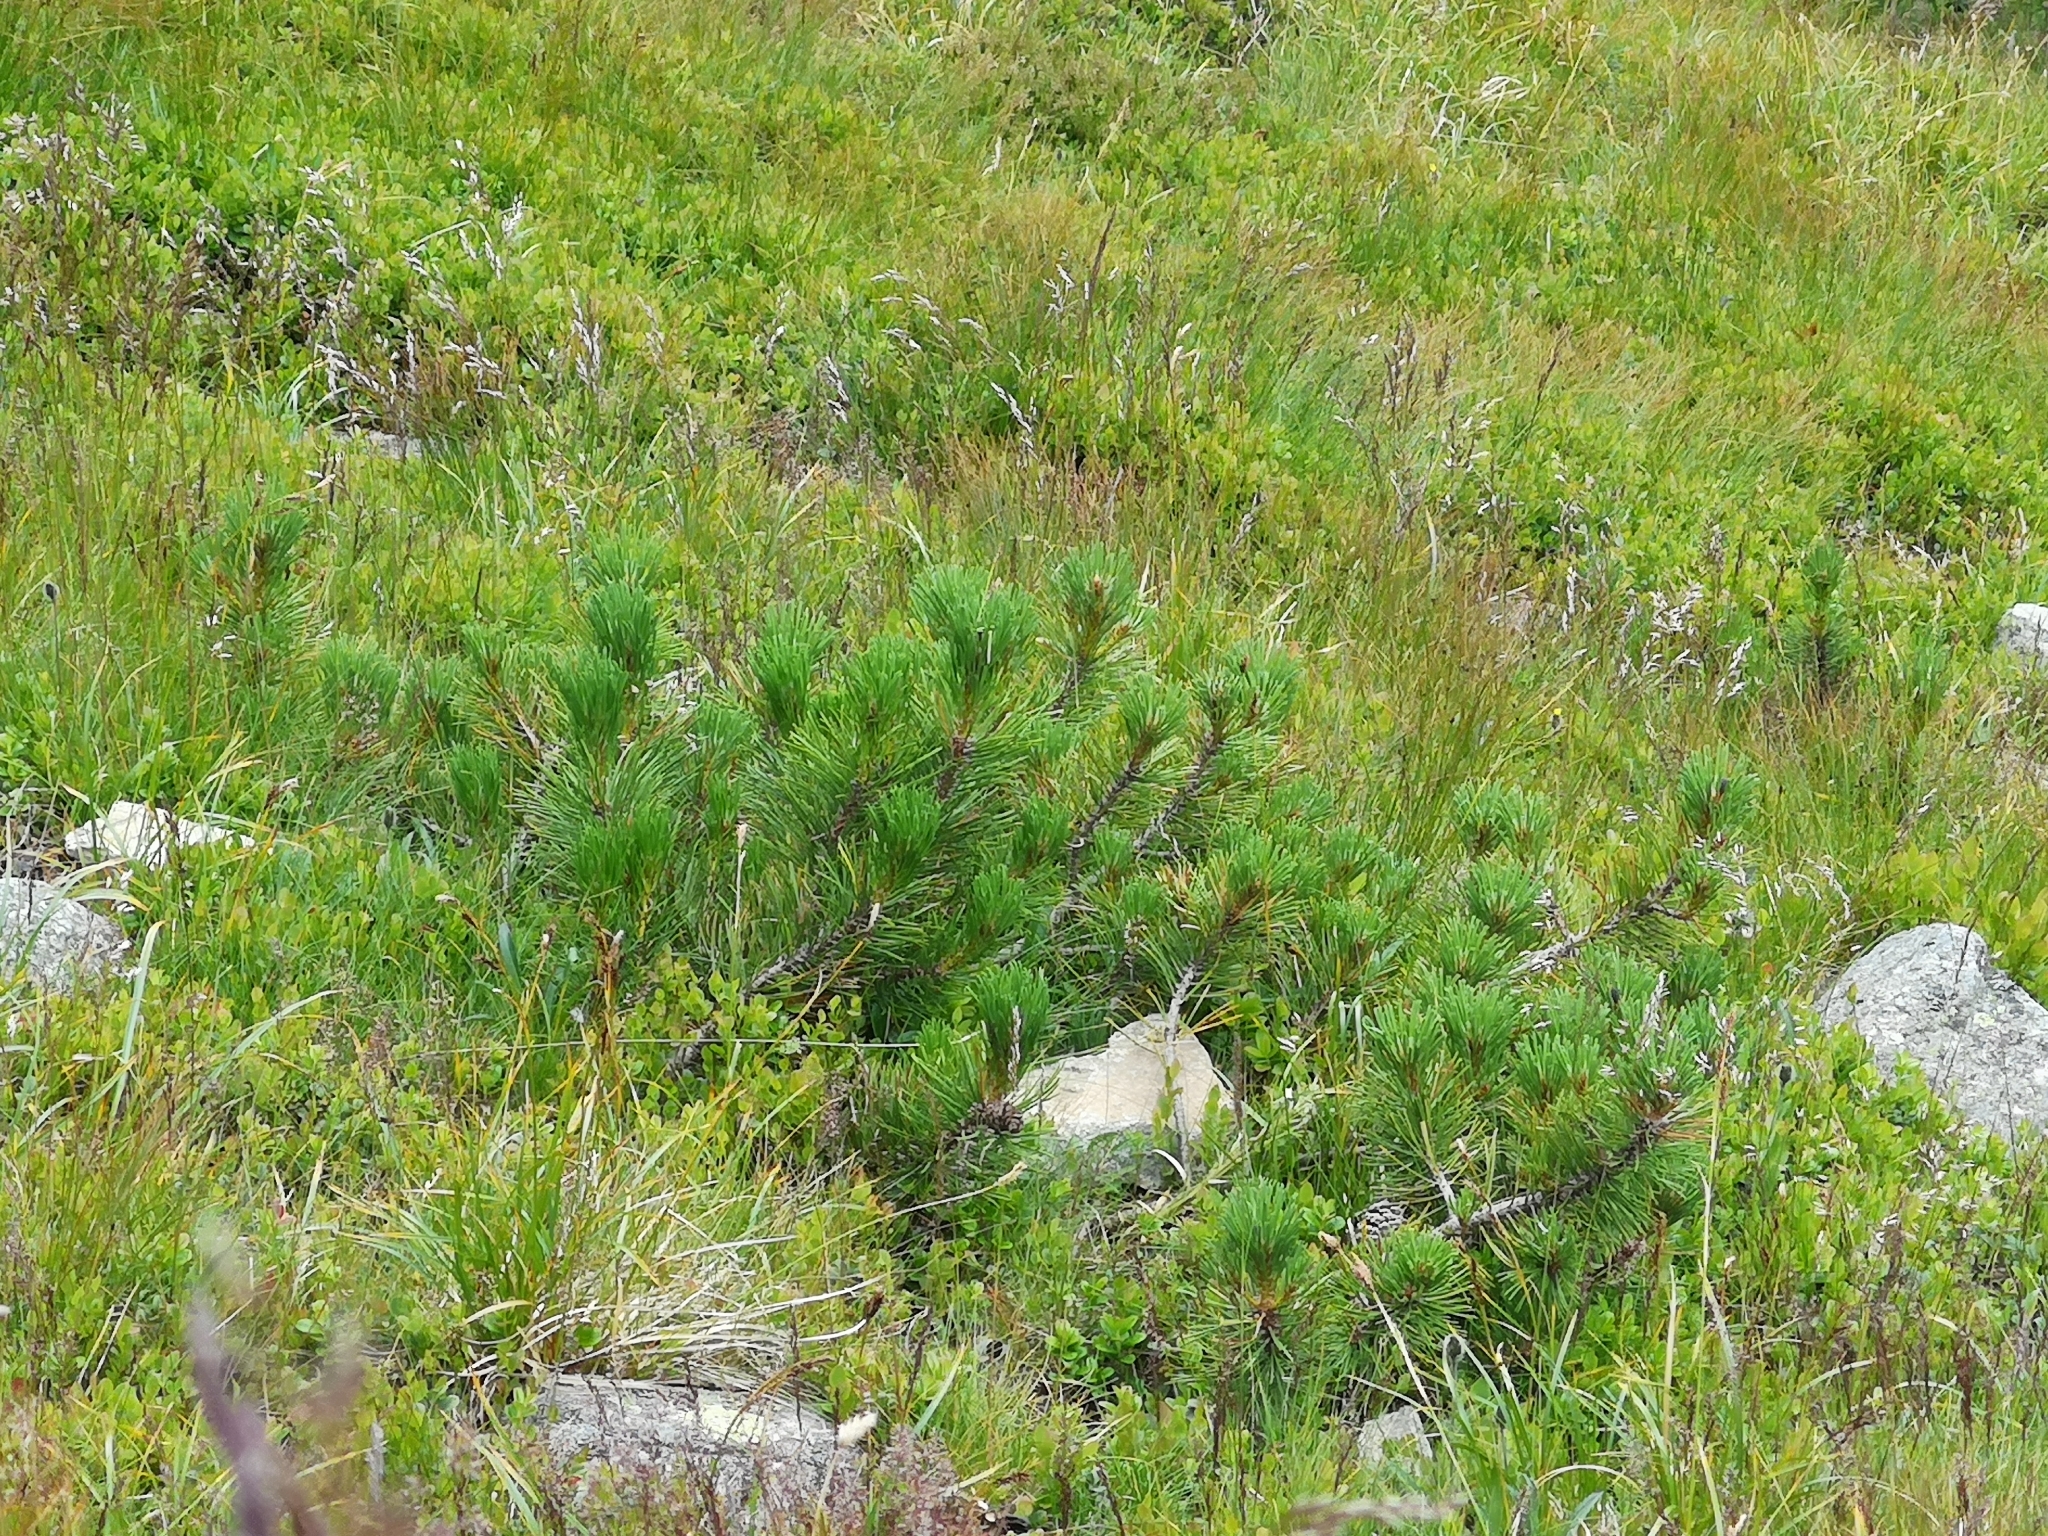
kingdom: Plantae
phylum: Tracheophyta
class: Pinopsida
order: Pinales
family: Pinaceae
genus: Pinus
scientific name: Pinus mugo
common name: Mugo pine
